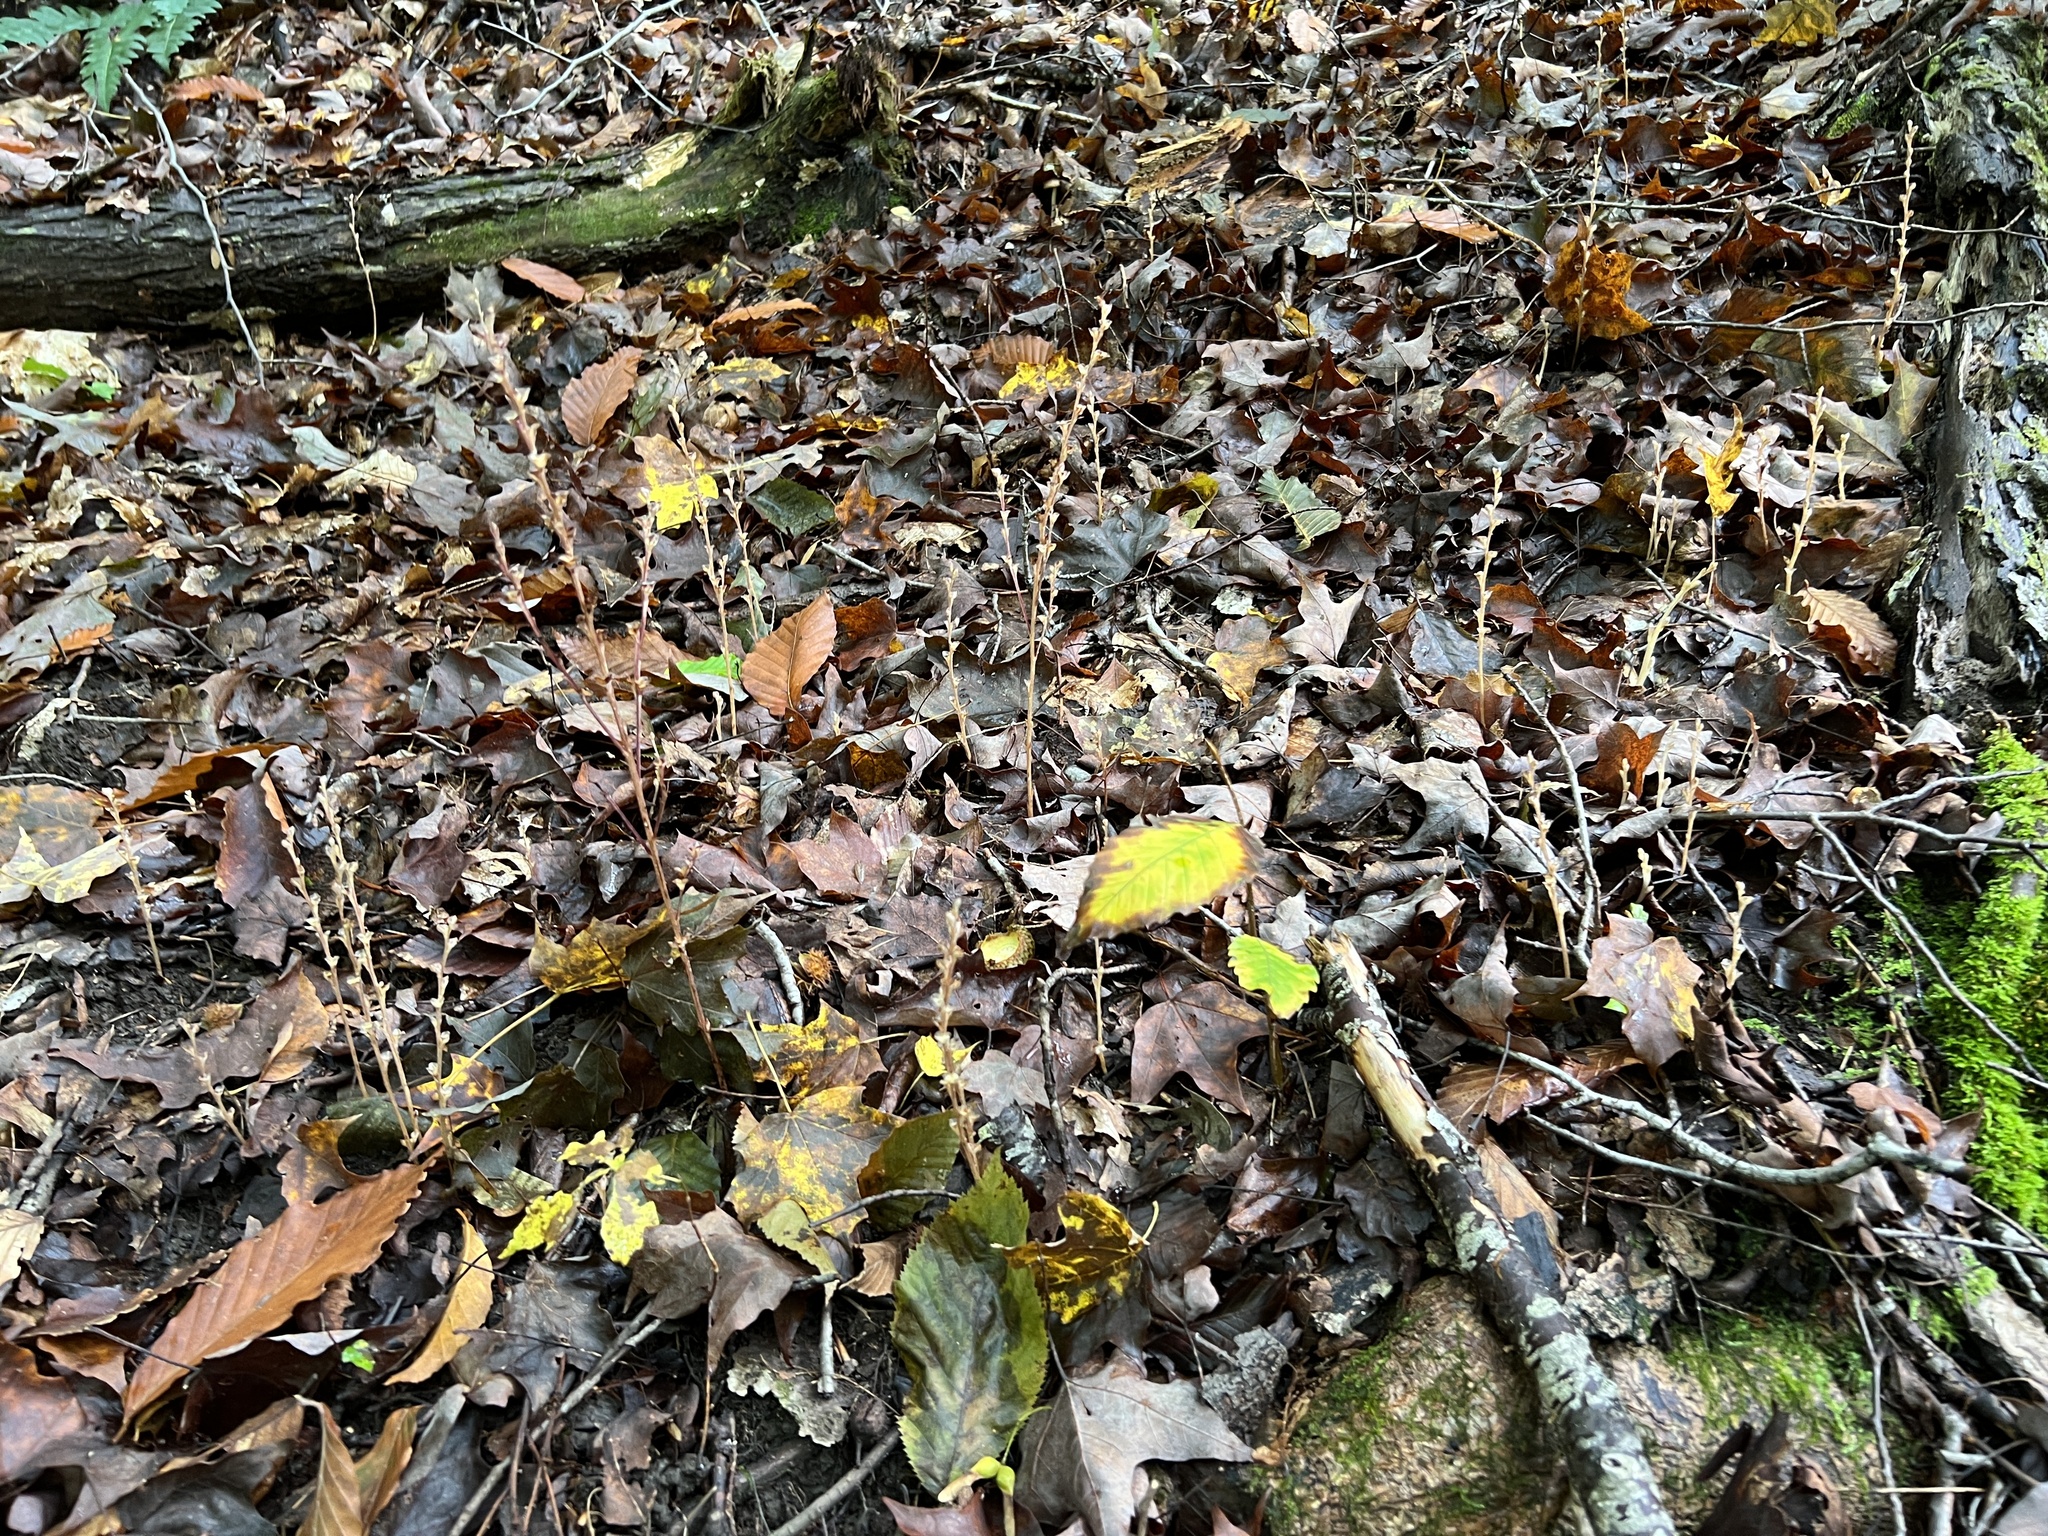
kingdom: Plantae
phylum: Tracheophyta
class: Magnoliopsida
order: Lamiales
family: Orobanchaceae
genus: Epifagus
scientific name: Epifagus virginiana
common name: Beechdrops
